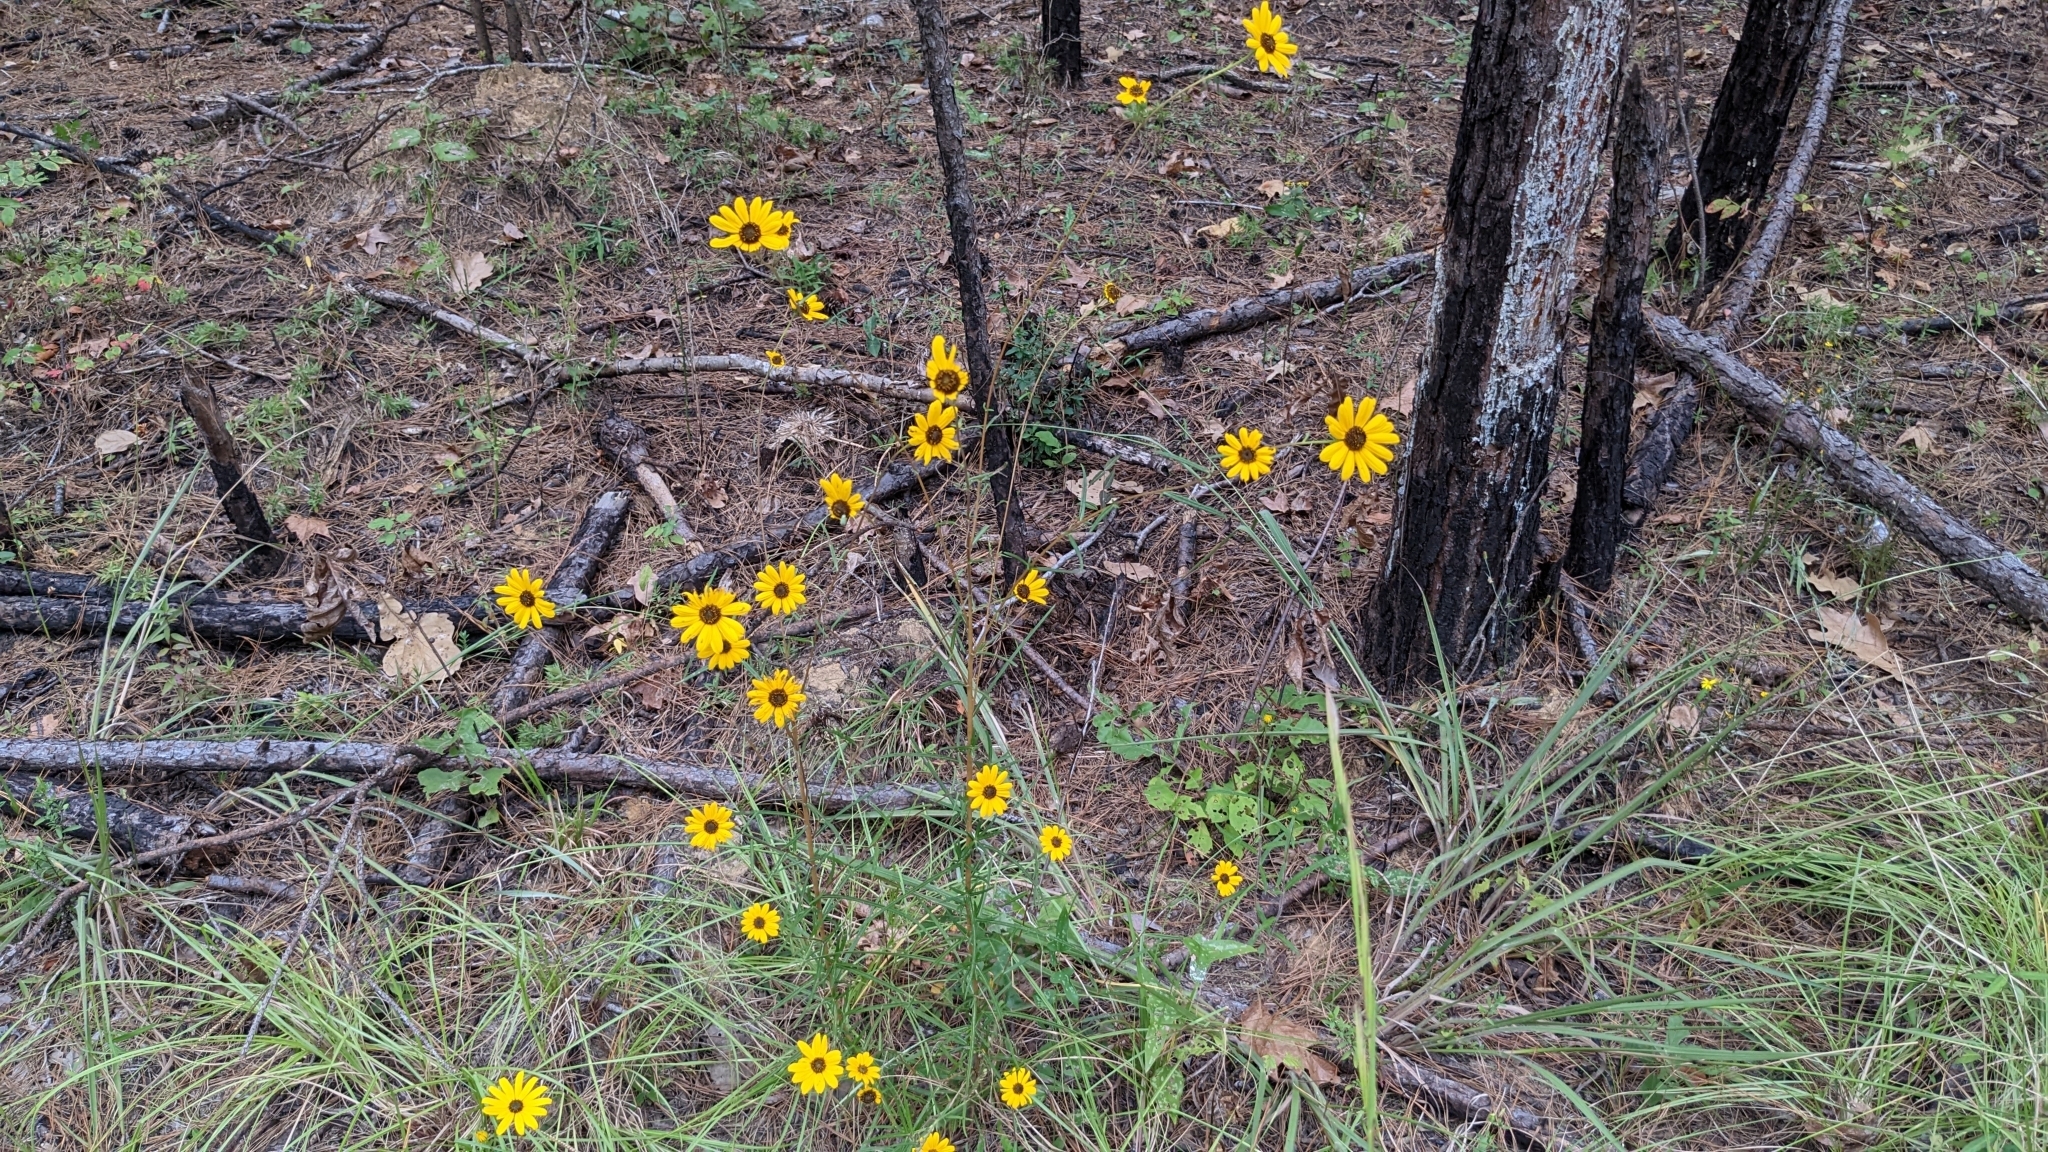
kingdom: Plantae
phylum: Tracheophyta
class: Magnoliopsida
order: Asterales
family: Asteraceae
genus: Helianthus
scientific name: Helianthus angustifolius
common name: Swamp sunflower
